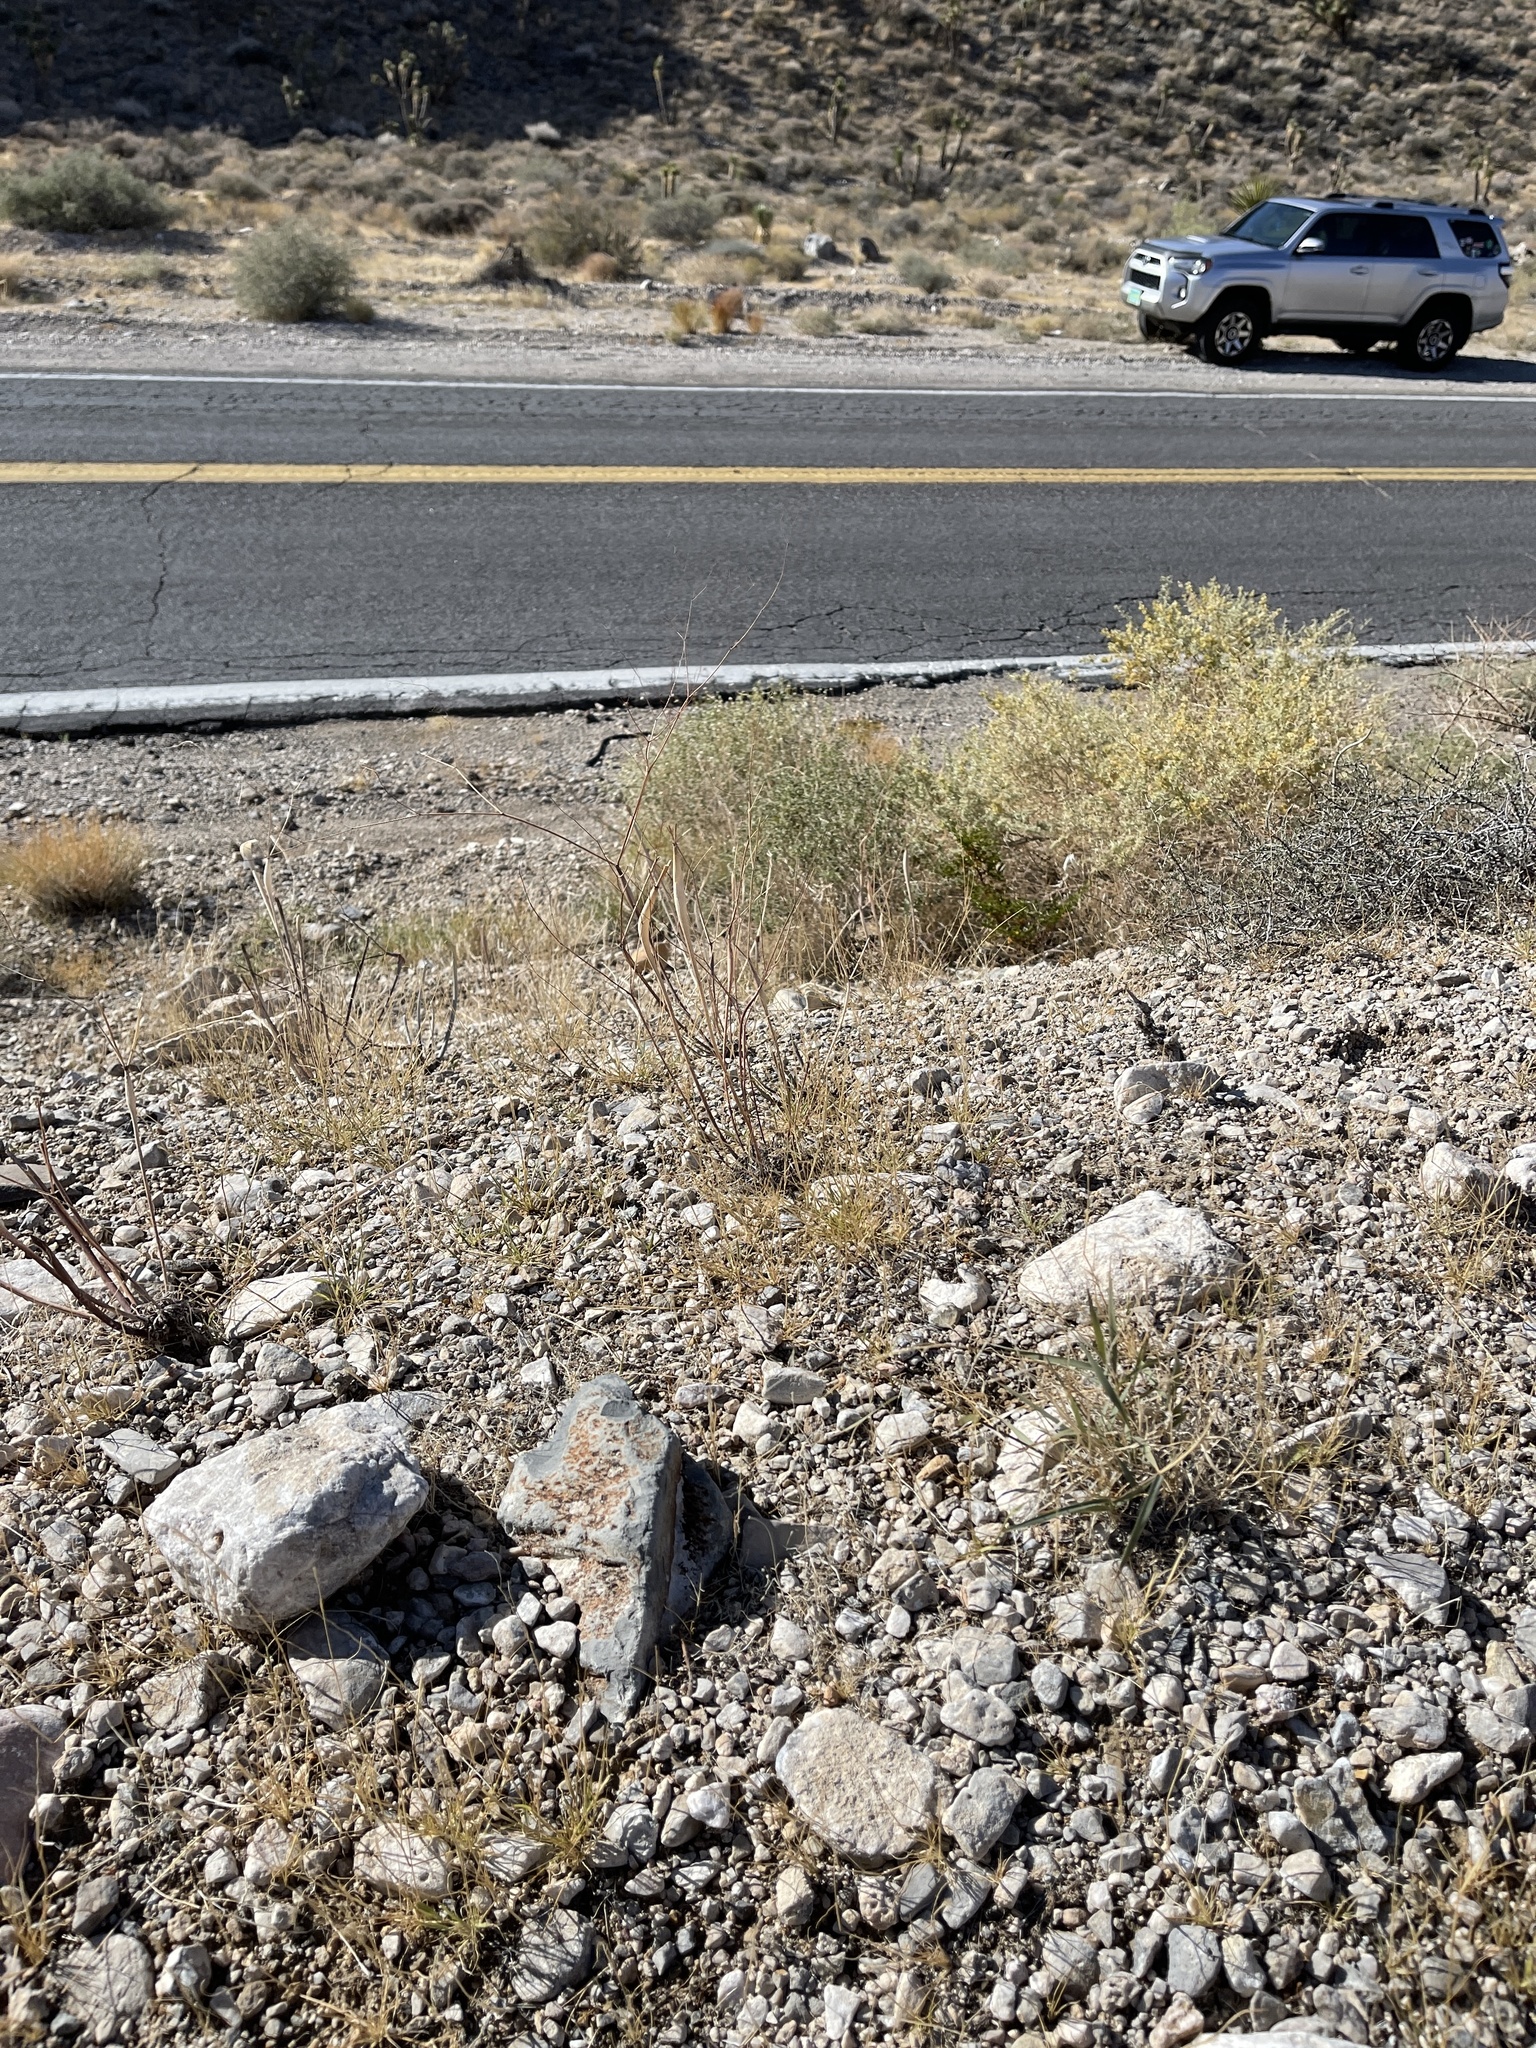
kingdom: Plantae
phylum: Tracheophyta
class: Magnoliopsida
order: Caryophyllales
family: Polygonaceae
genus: Eriogonum
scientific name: Eriogonum inflatum
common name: Desert trumpet
